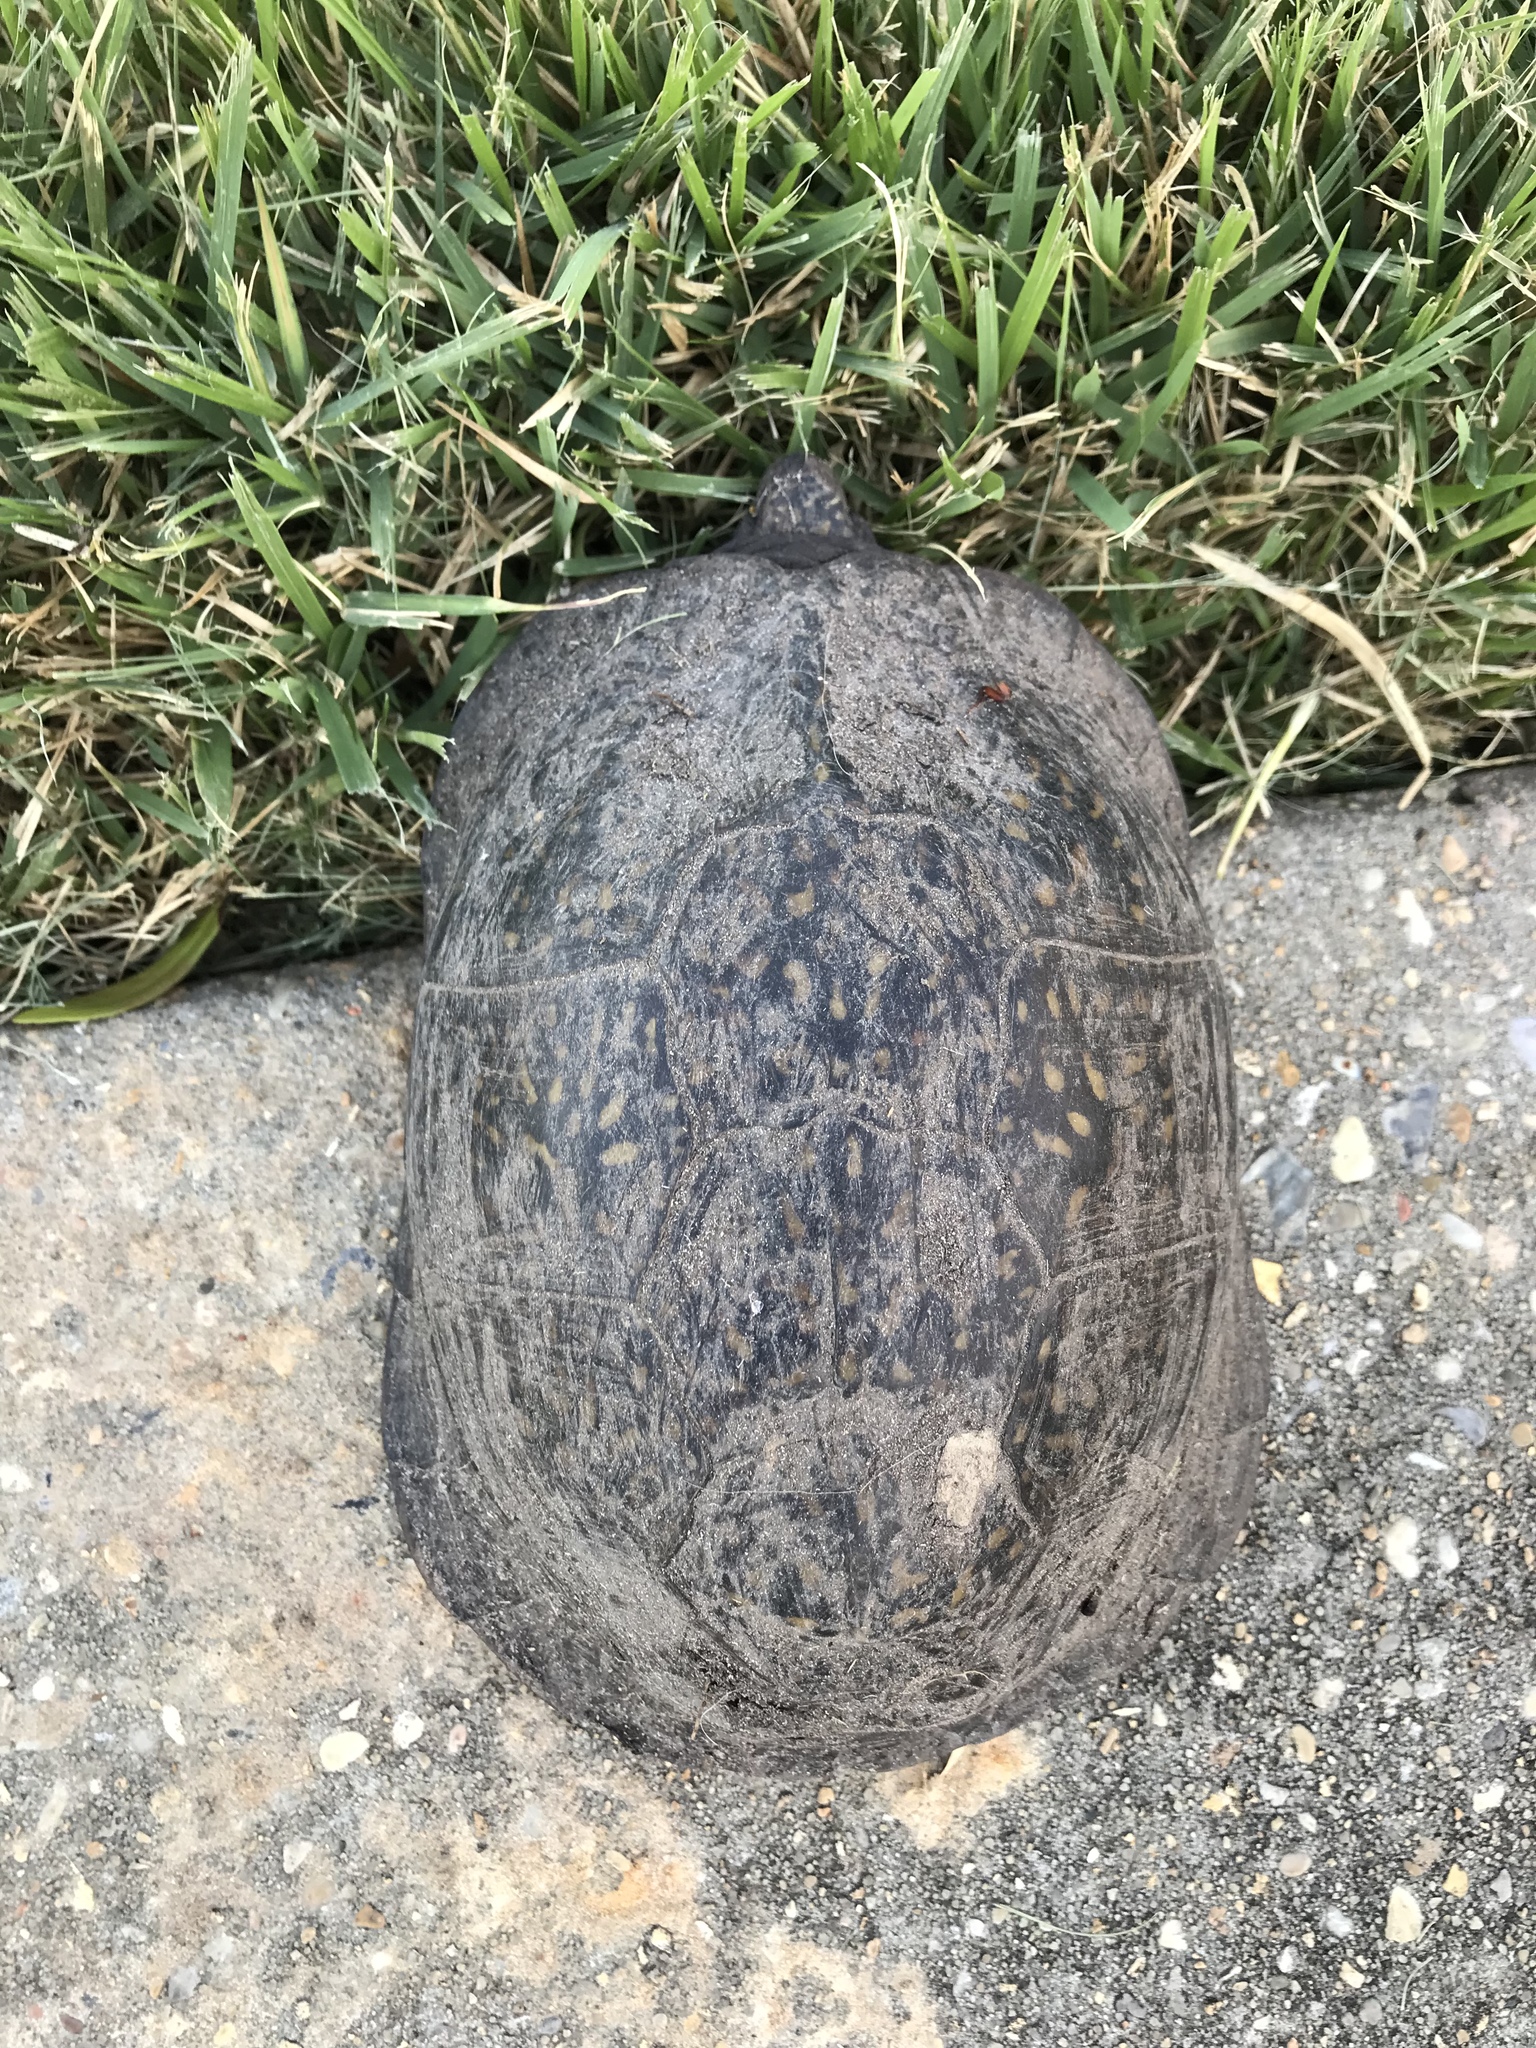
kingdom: Animalia
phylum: Chordata
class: Testudines
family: Emydidae
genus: Terrapene
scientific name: Terrapene carolina
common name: Common box turtle
